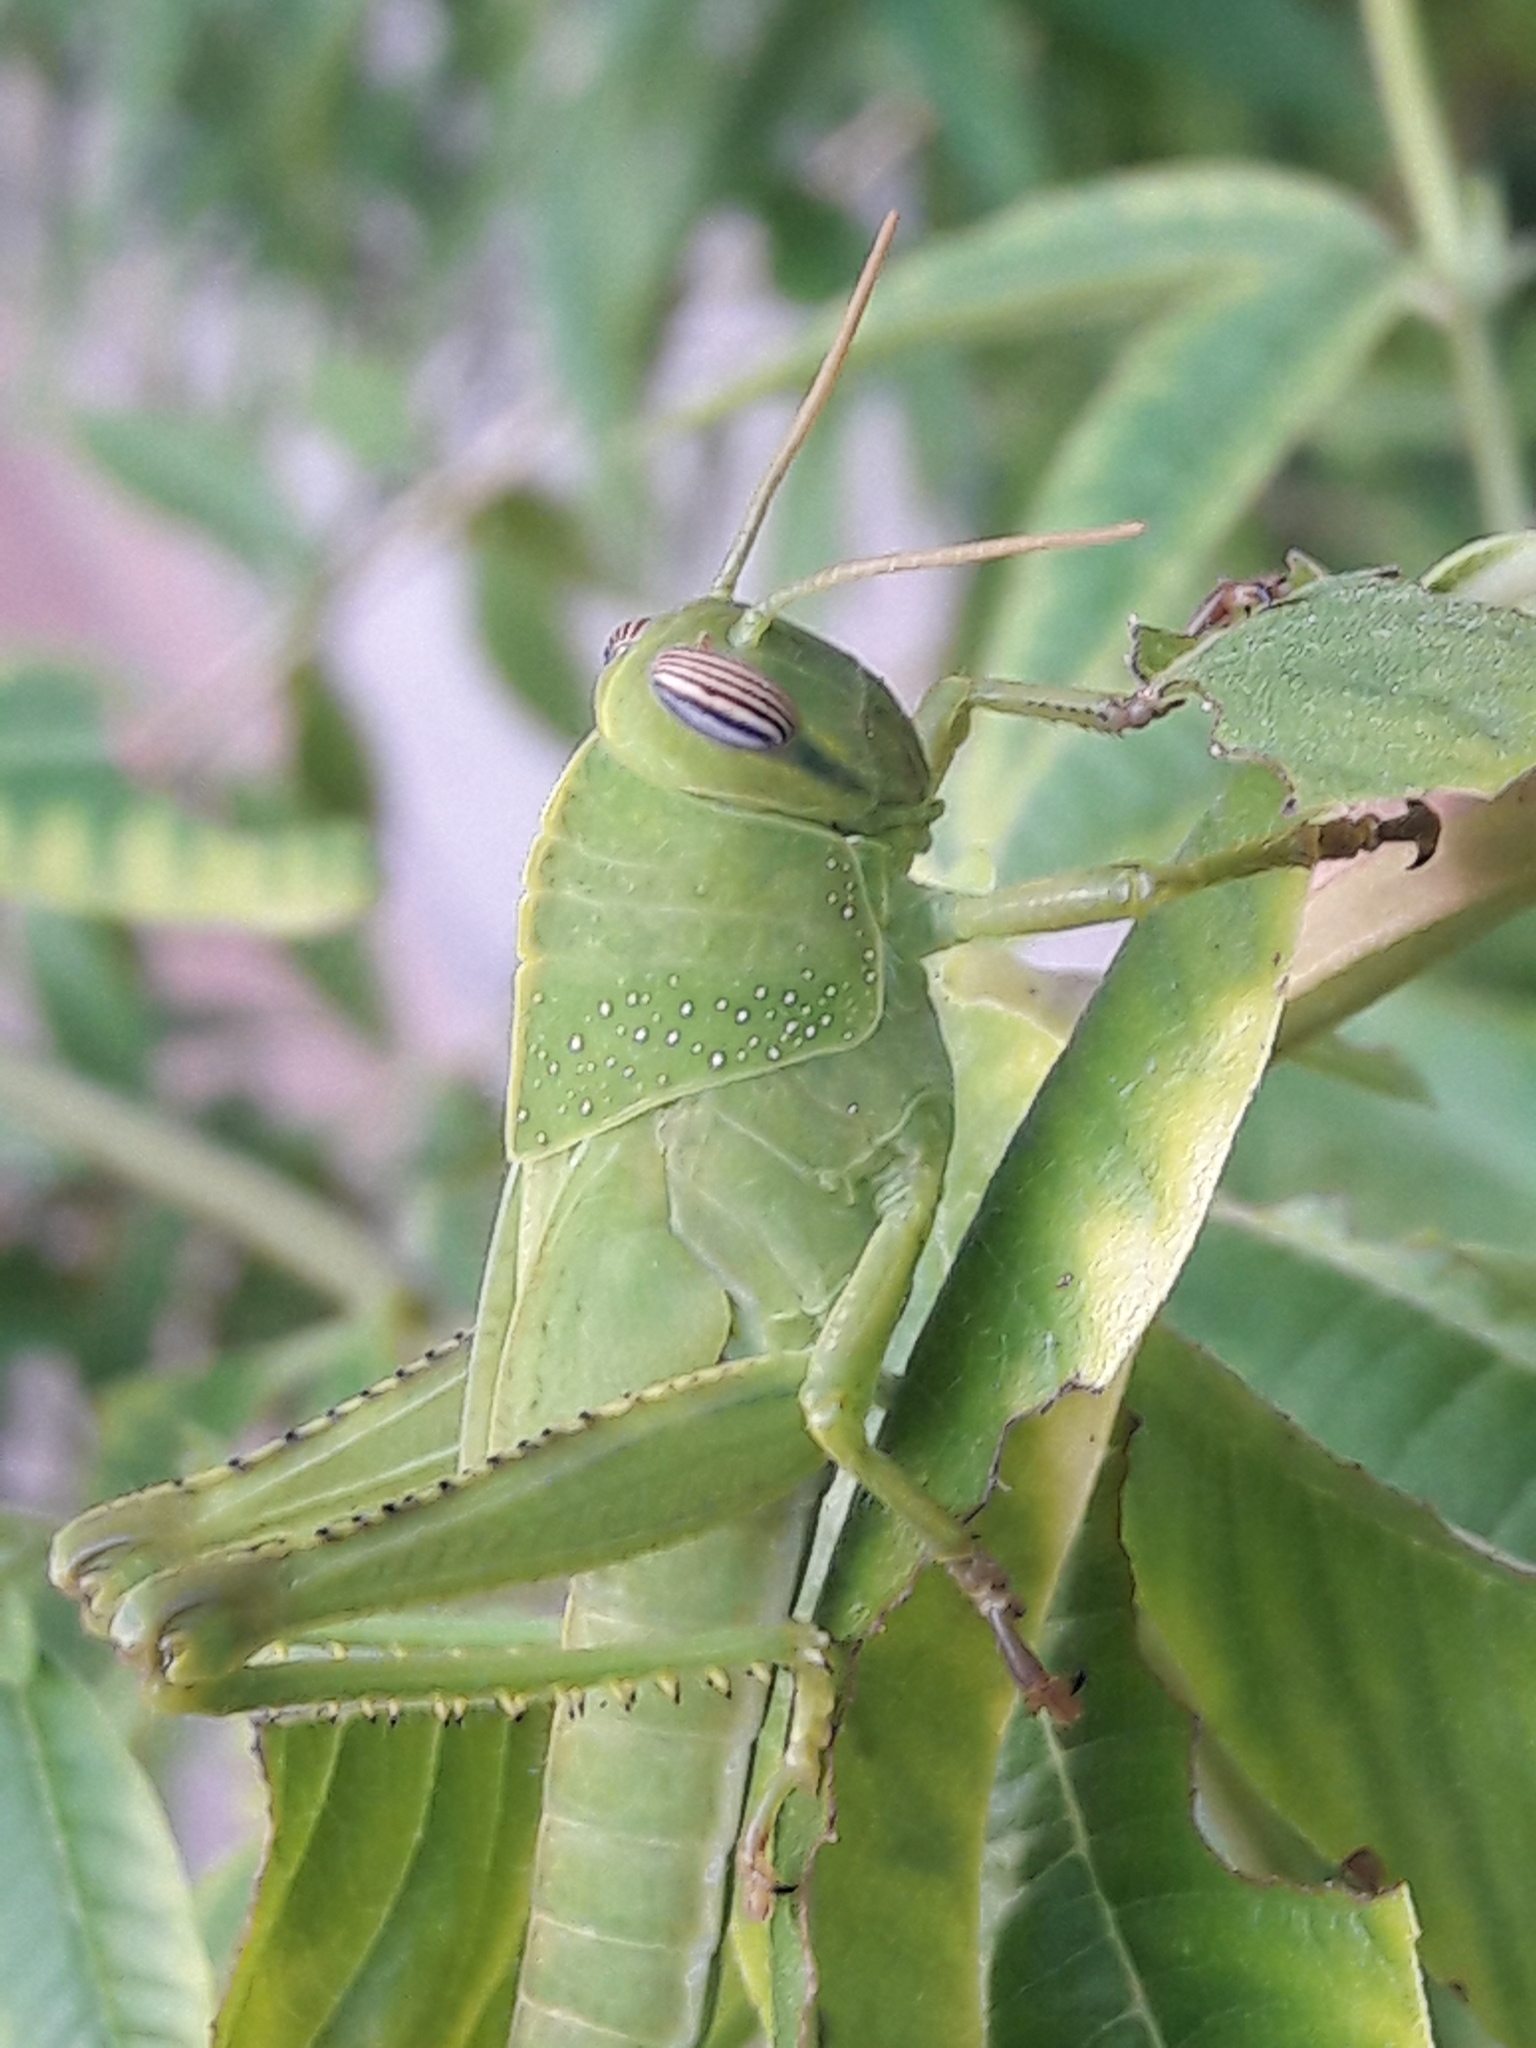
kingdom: Animalia
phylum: Arthropoda
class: Insecta
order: Orthoptera
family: Acrididae
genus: Anacridium
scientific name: Anacridium aegyptium
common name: Egyptian grasshopper
